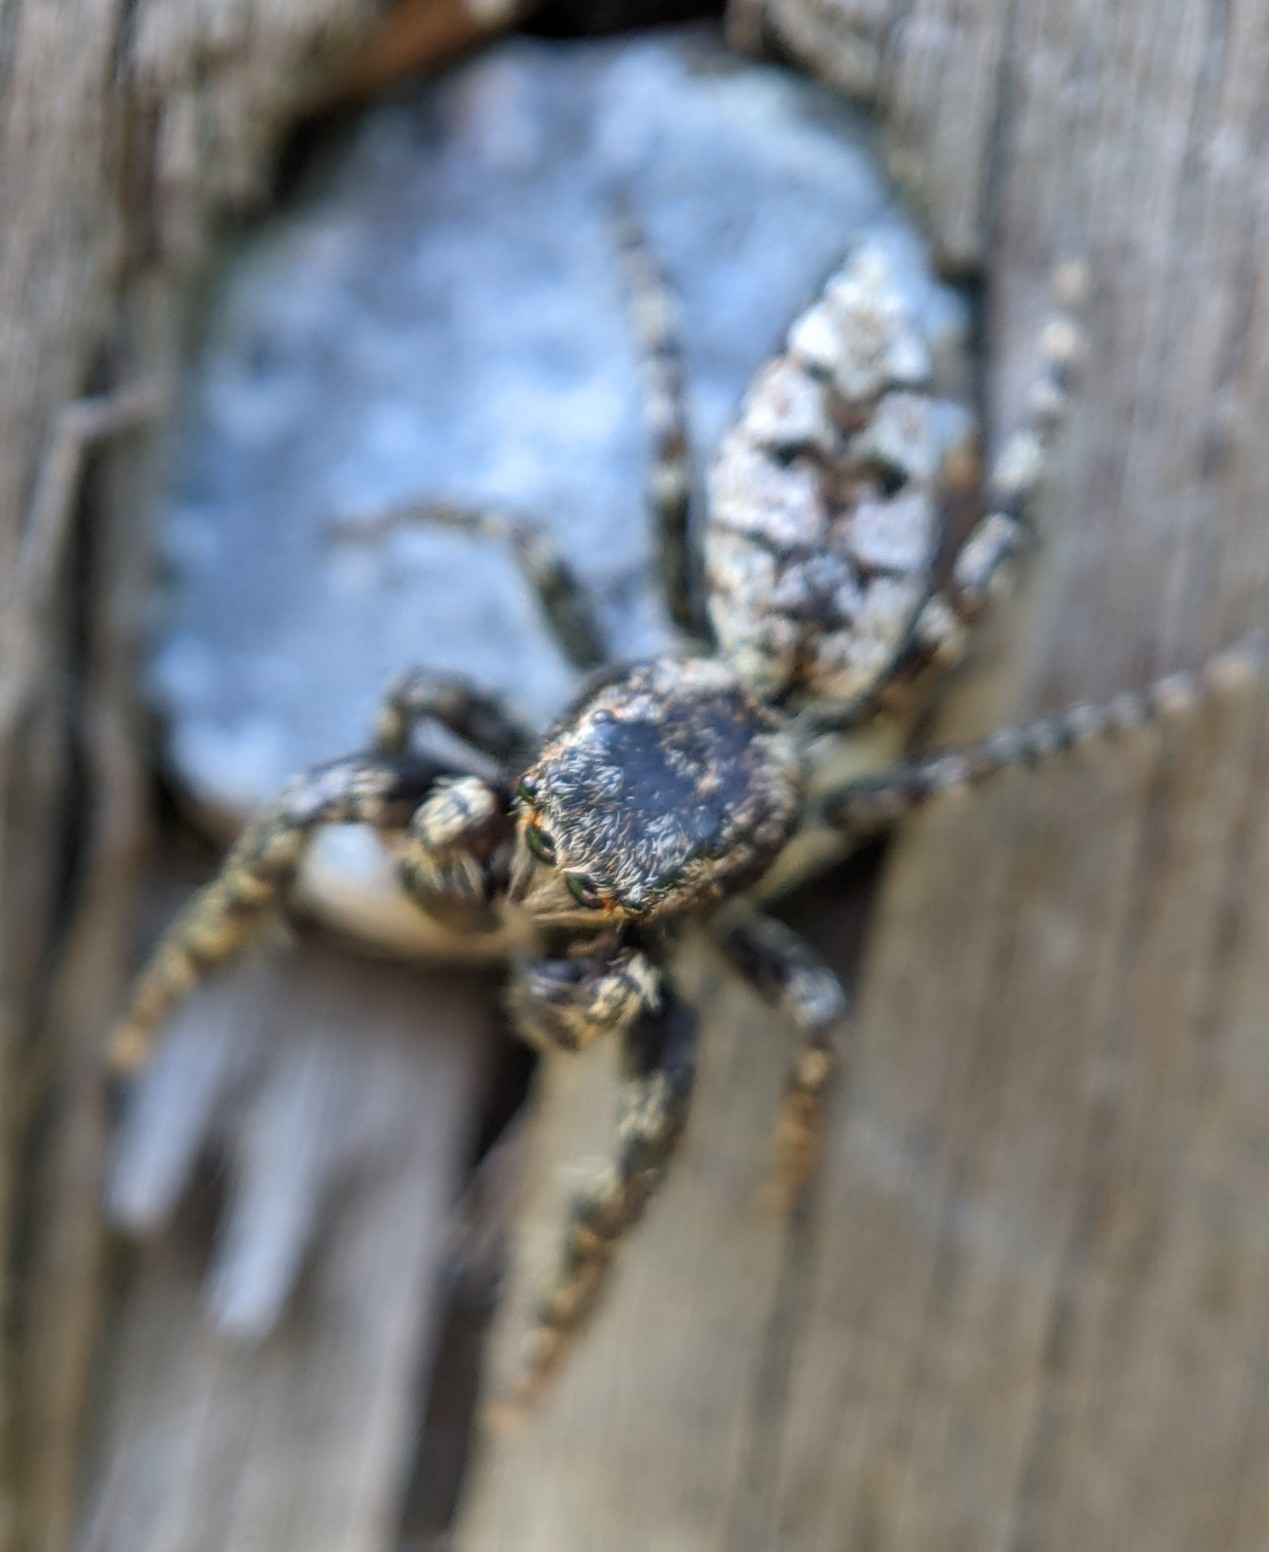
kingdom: Animalia
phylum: Arthropoda
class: Arachnida
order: Araneae
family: Salticidae
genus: Marpissa
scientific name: Marpissa muscosa
